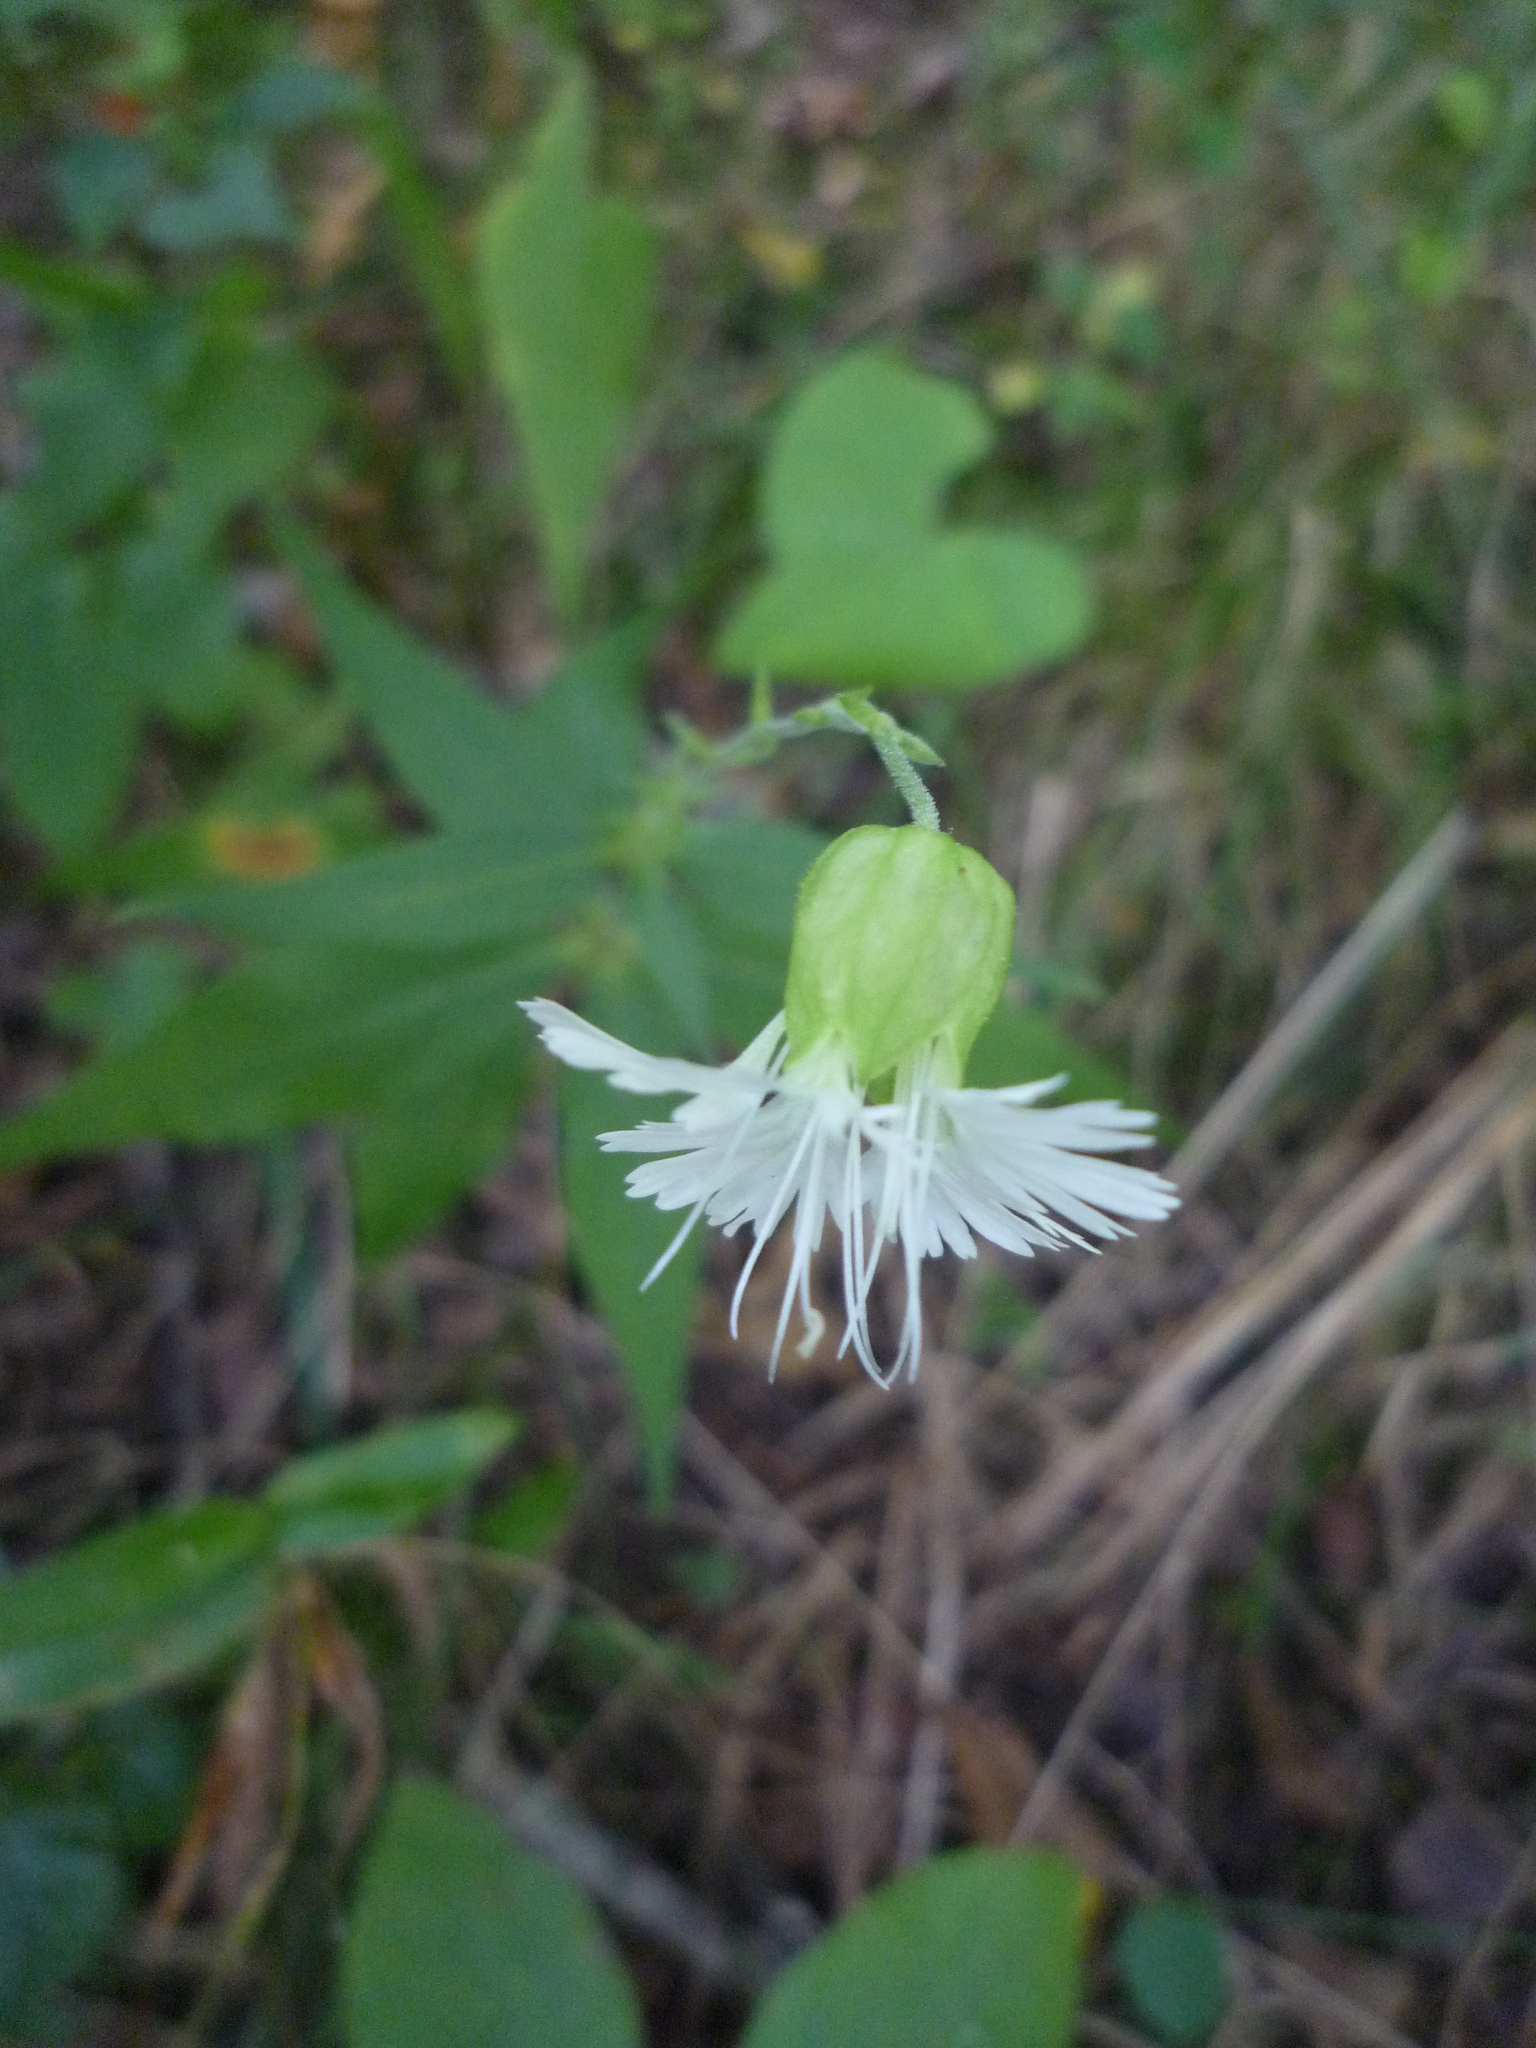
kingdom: Plantae
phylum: Tracheophyta
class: Magnoliopsida
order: Caryophyllales
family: Caryophyllaceae
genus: Silene
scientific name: Silene stellata
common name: Starry campion
